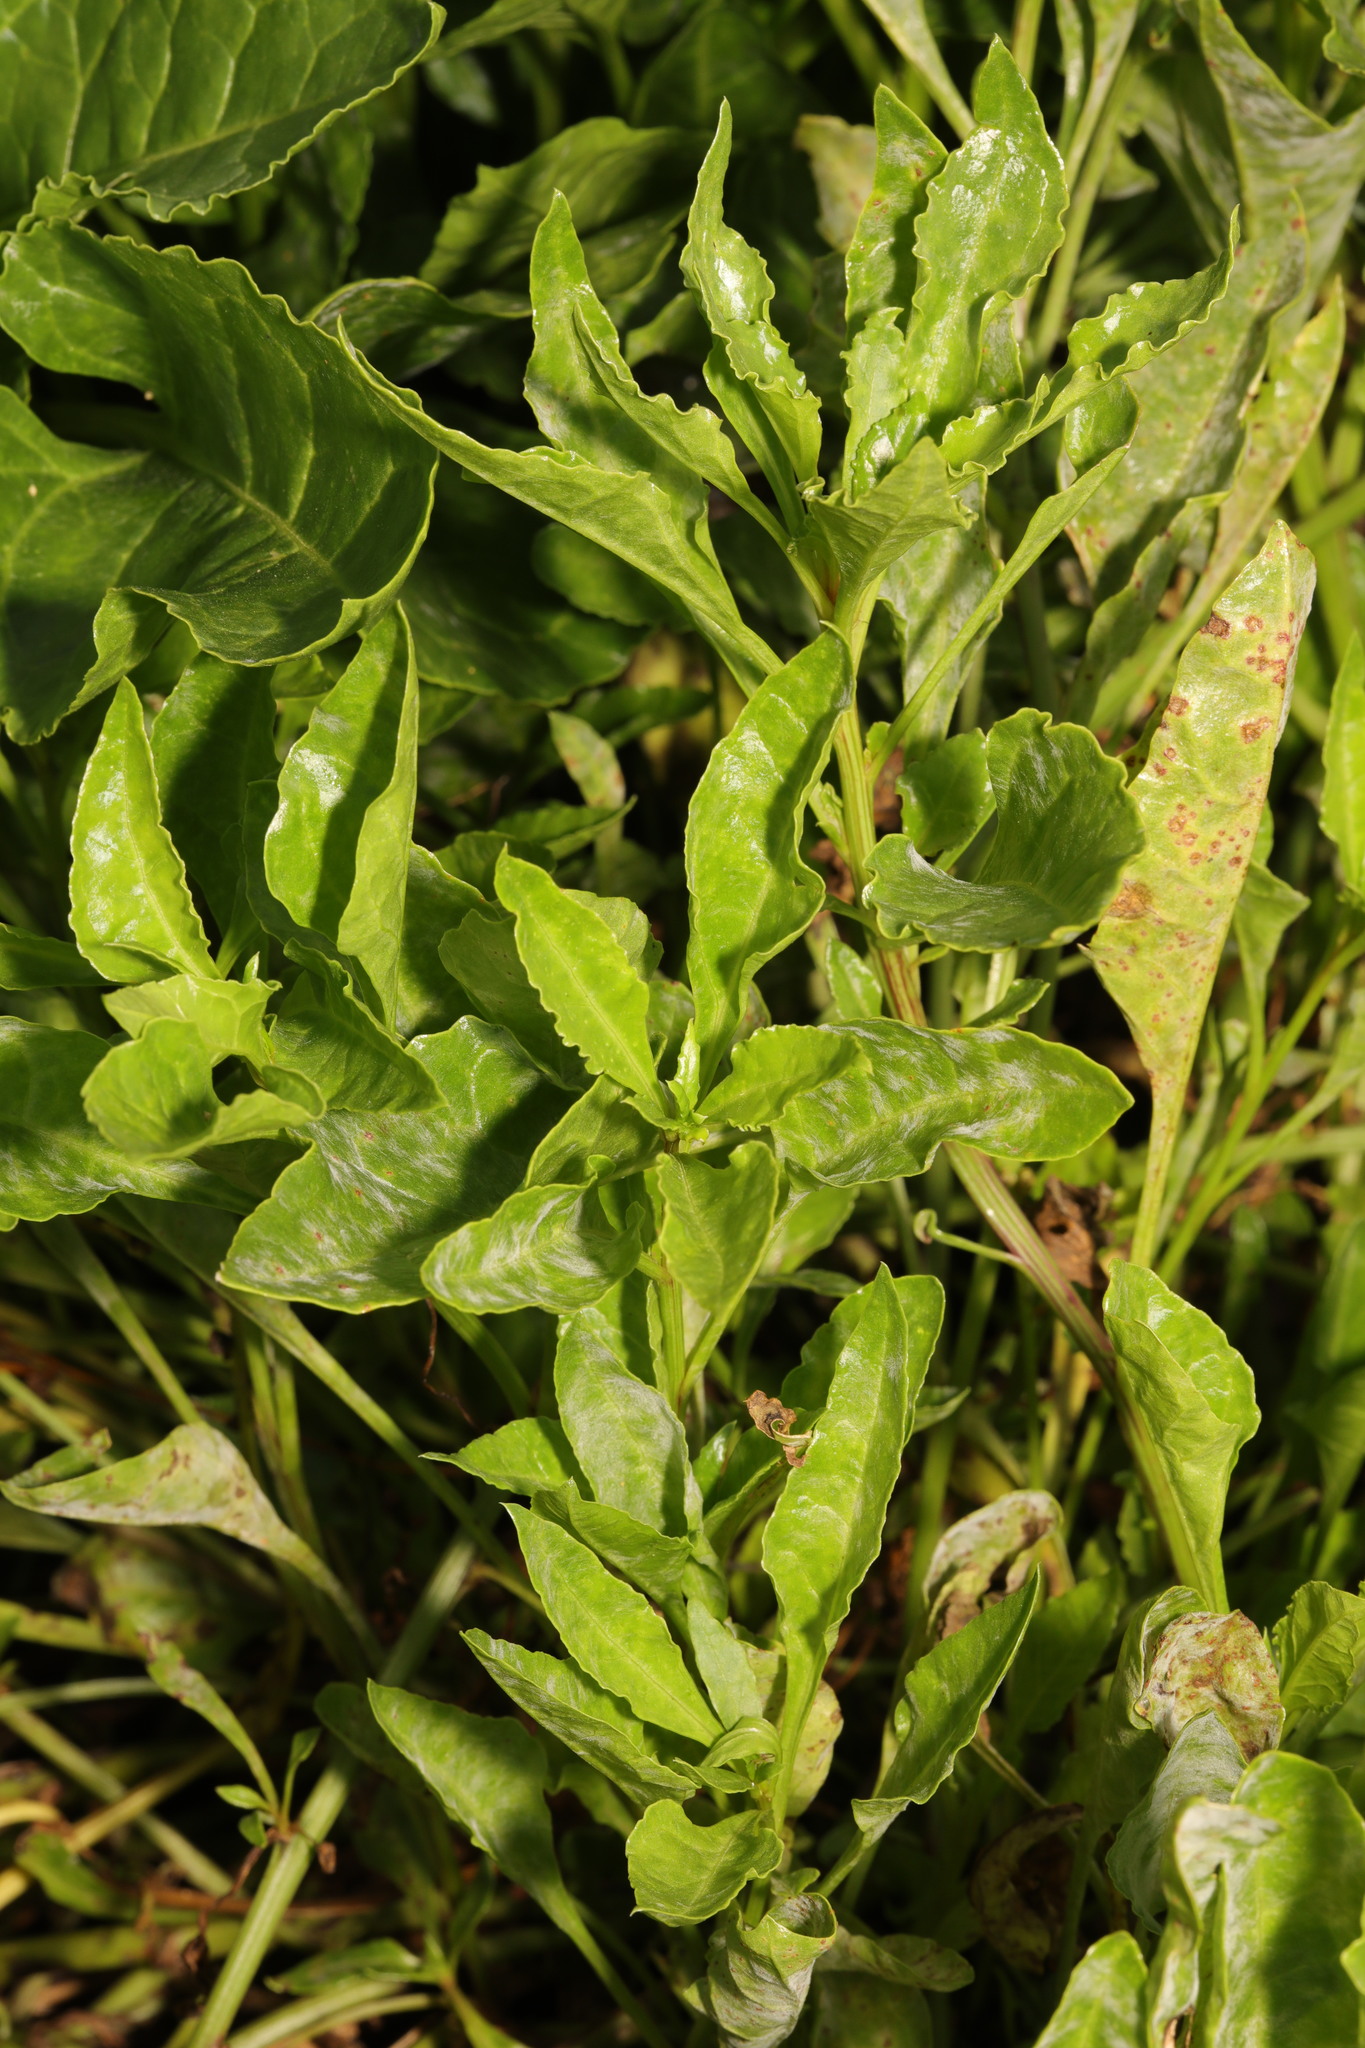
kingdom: Plantae
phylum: Tracheophyta
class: Magnoliopsida
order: Caryophyllales
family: Amaranthaceae
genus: Beta
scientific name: Beta vulgaris
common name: Beet
